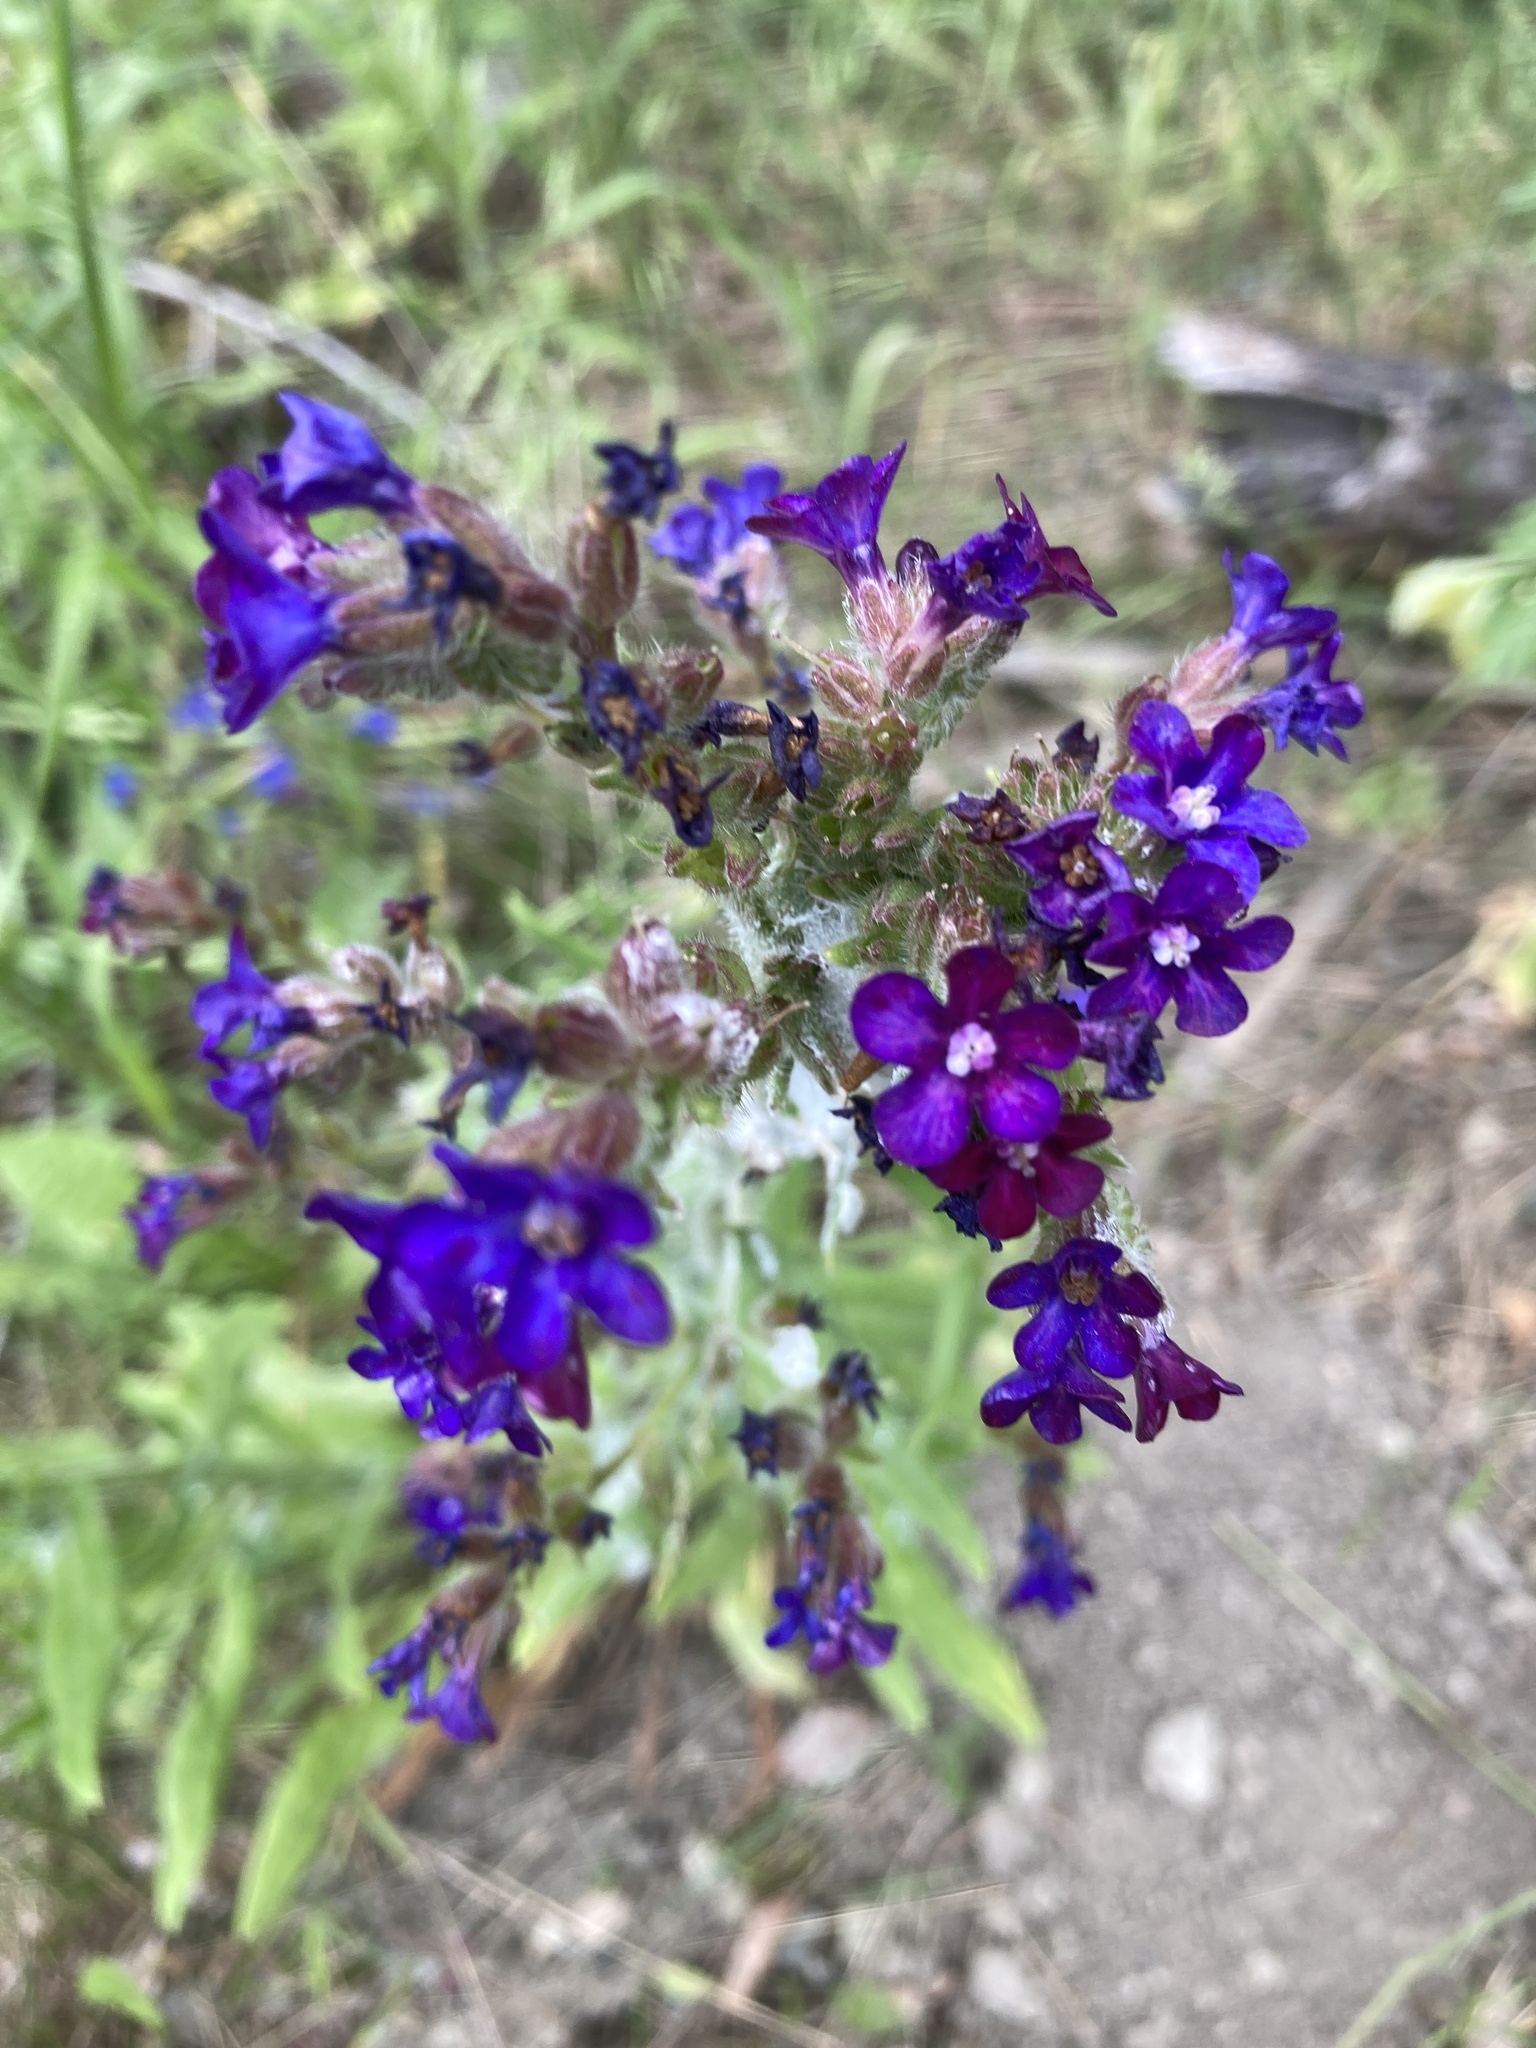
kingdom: Plantae
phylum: Tracheophyta
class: Magnoliopsida
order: Boraginales
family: Boraginaceae
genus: Anchusa
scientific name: Anchusa officinalis
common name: Alkanet
